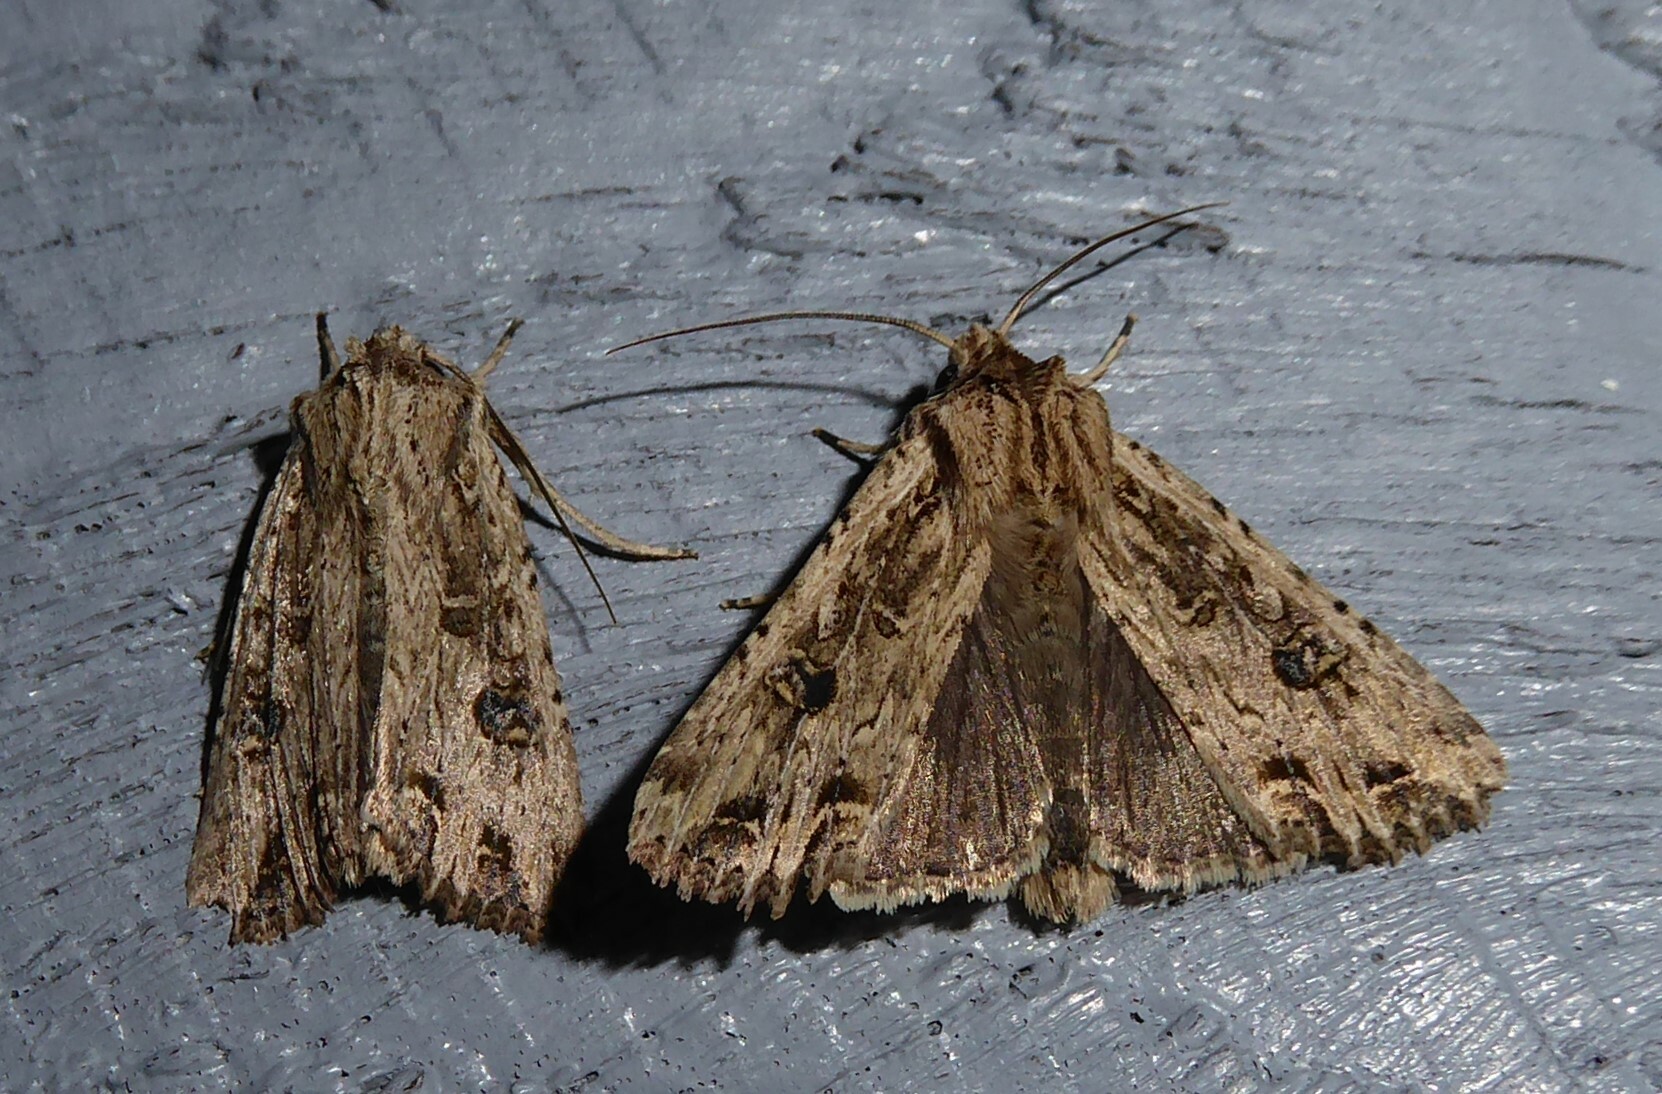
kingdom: Animalia
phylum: Arthropoda
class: Insecta
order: Lepidoptera
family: Noctuidae
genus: Ichneutica
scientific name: Ichneutica lignana
